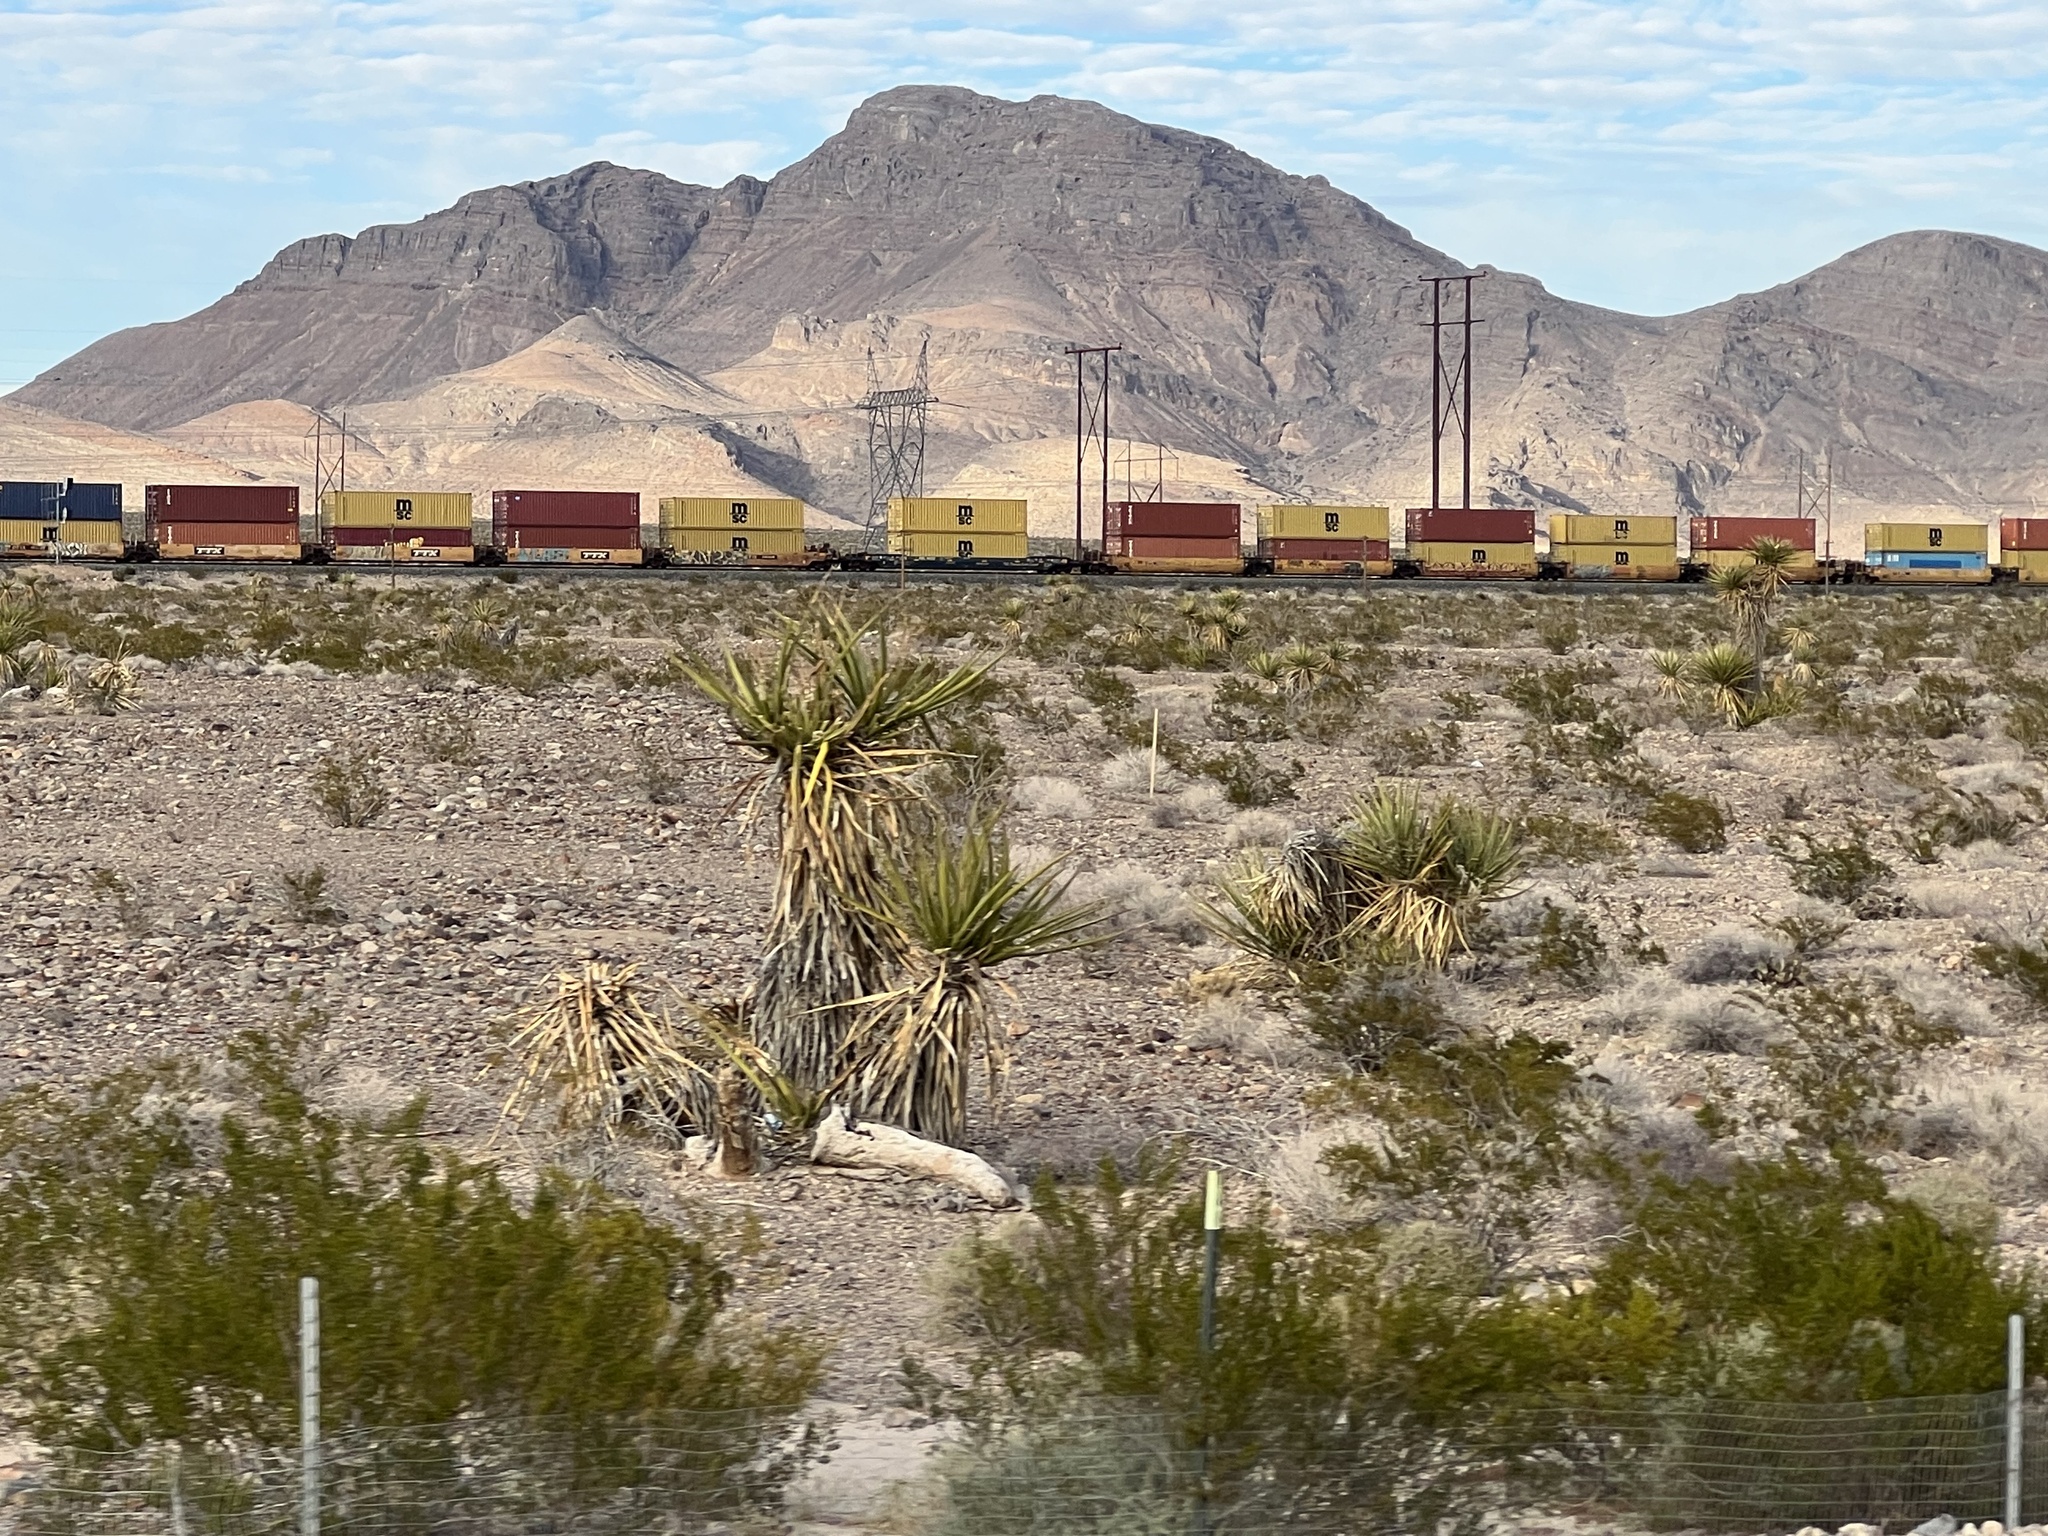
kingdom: Plantae
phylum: Tracheophyta
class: Liliopsida
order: Asparagales
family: Asparagaceae
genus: Yucca
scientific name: Yucca schidigera
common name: Mojave yucca
